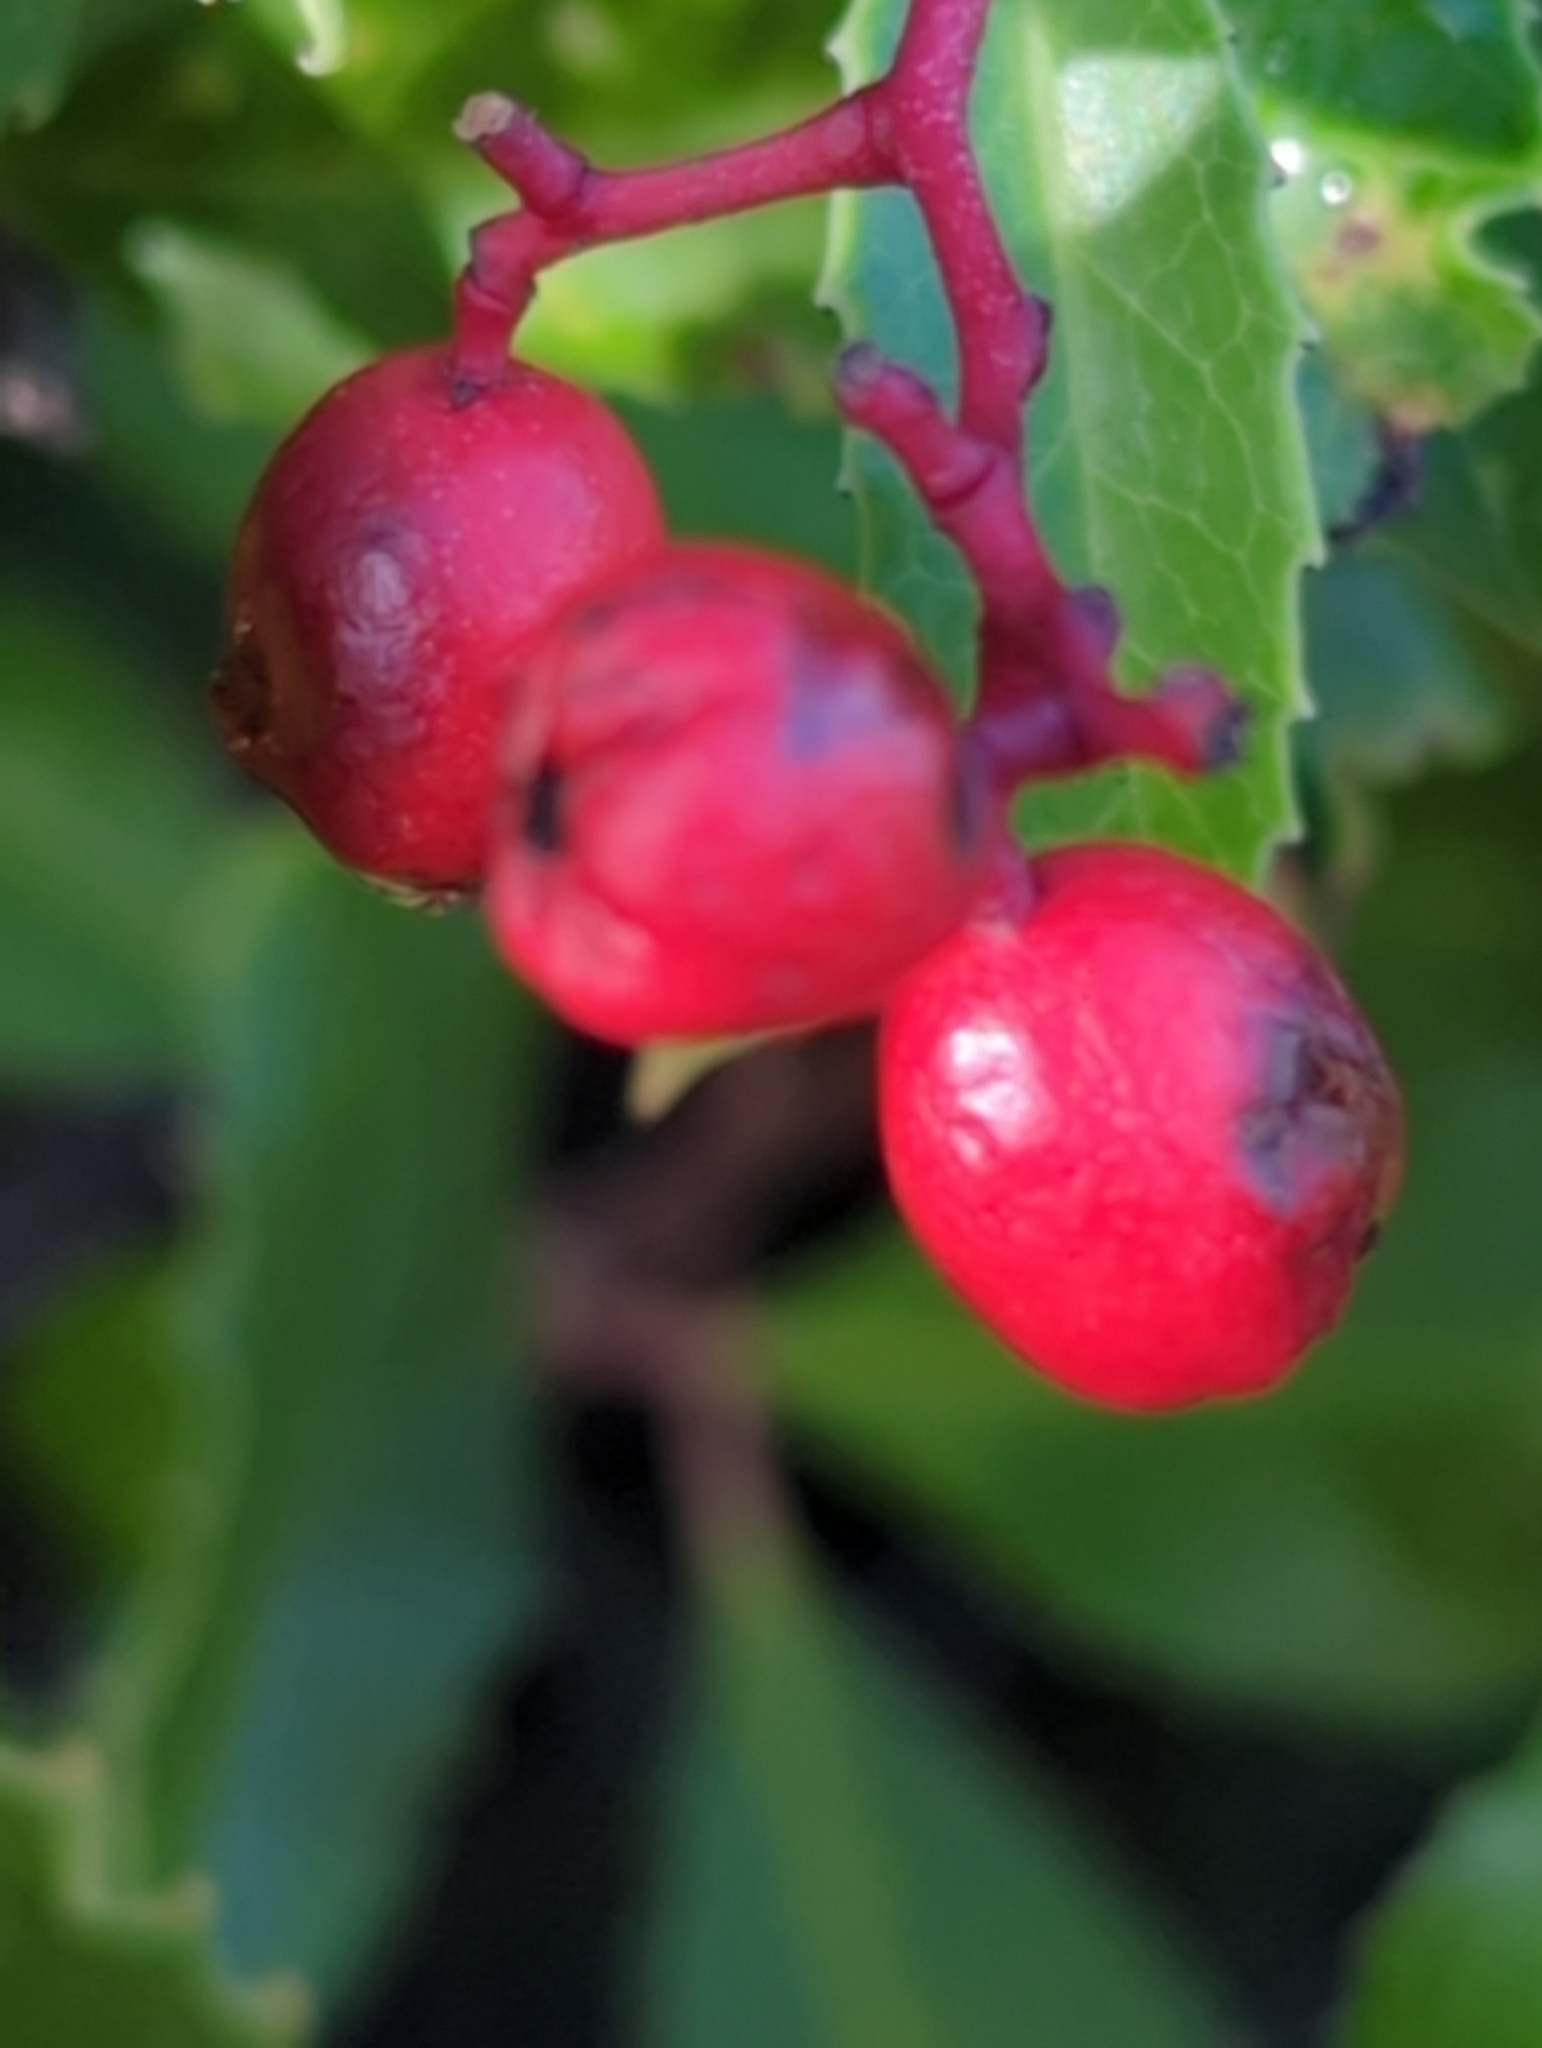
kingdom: Plantae
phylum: Tracheophyta
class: Magnoliopsida
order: Rosales
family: Rosaceae
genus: Heteromeles
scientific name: Heteromeles arbutifolia
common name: California-holly
